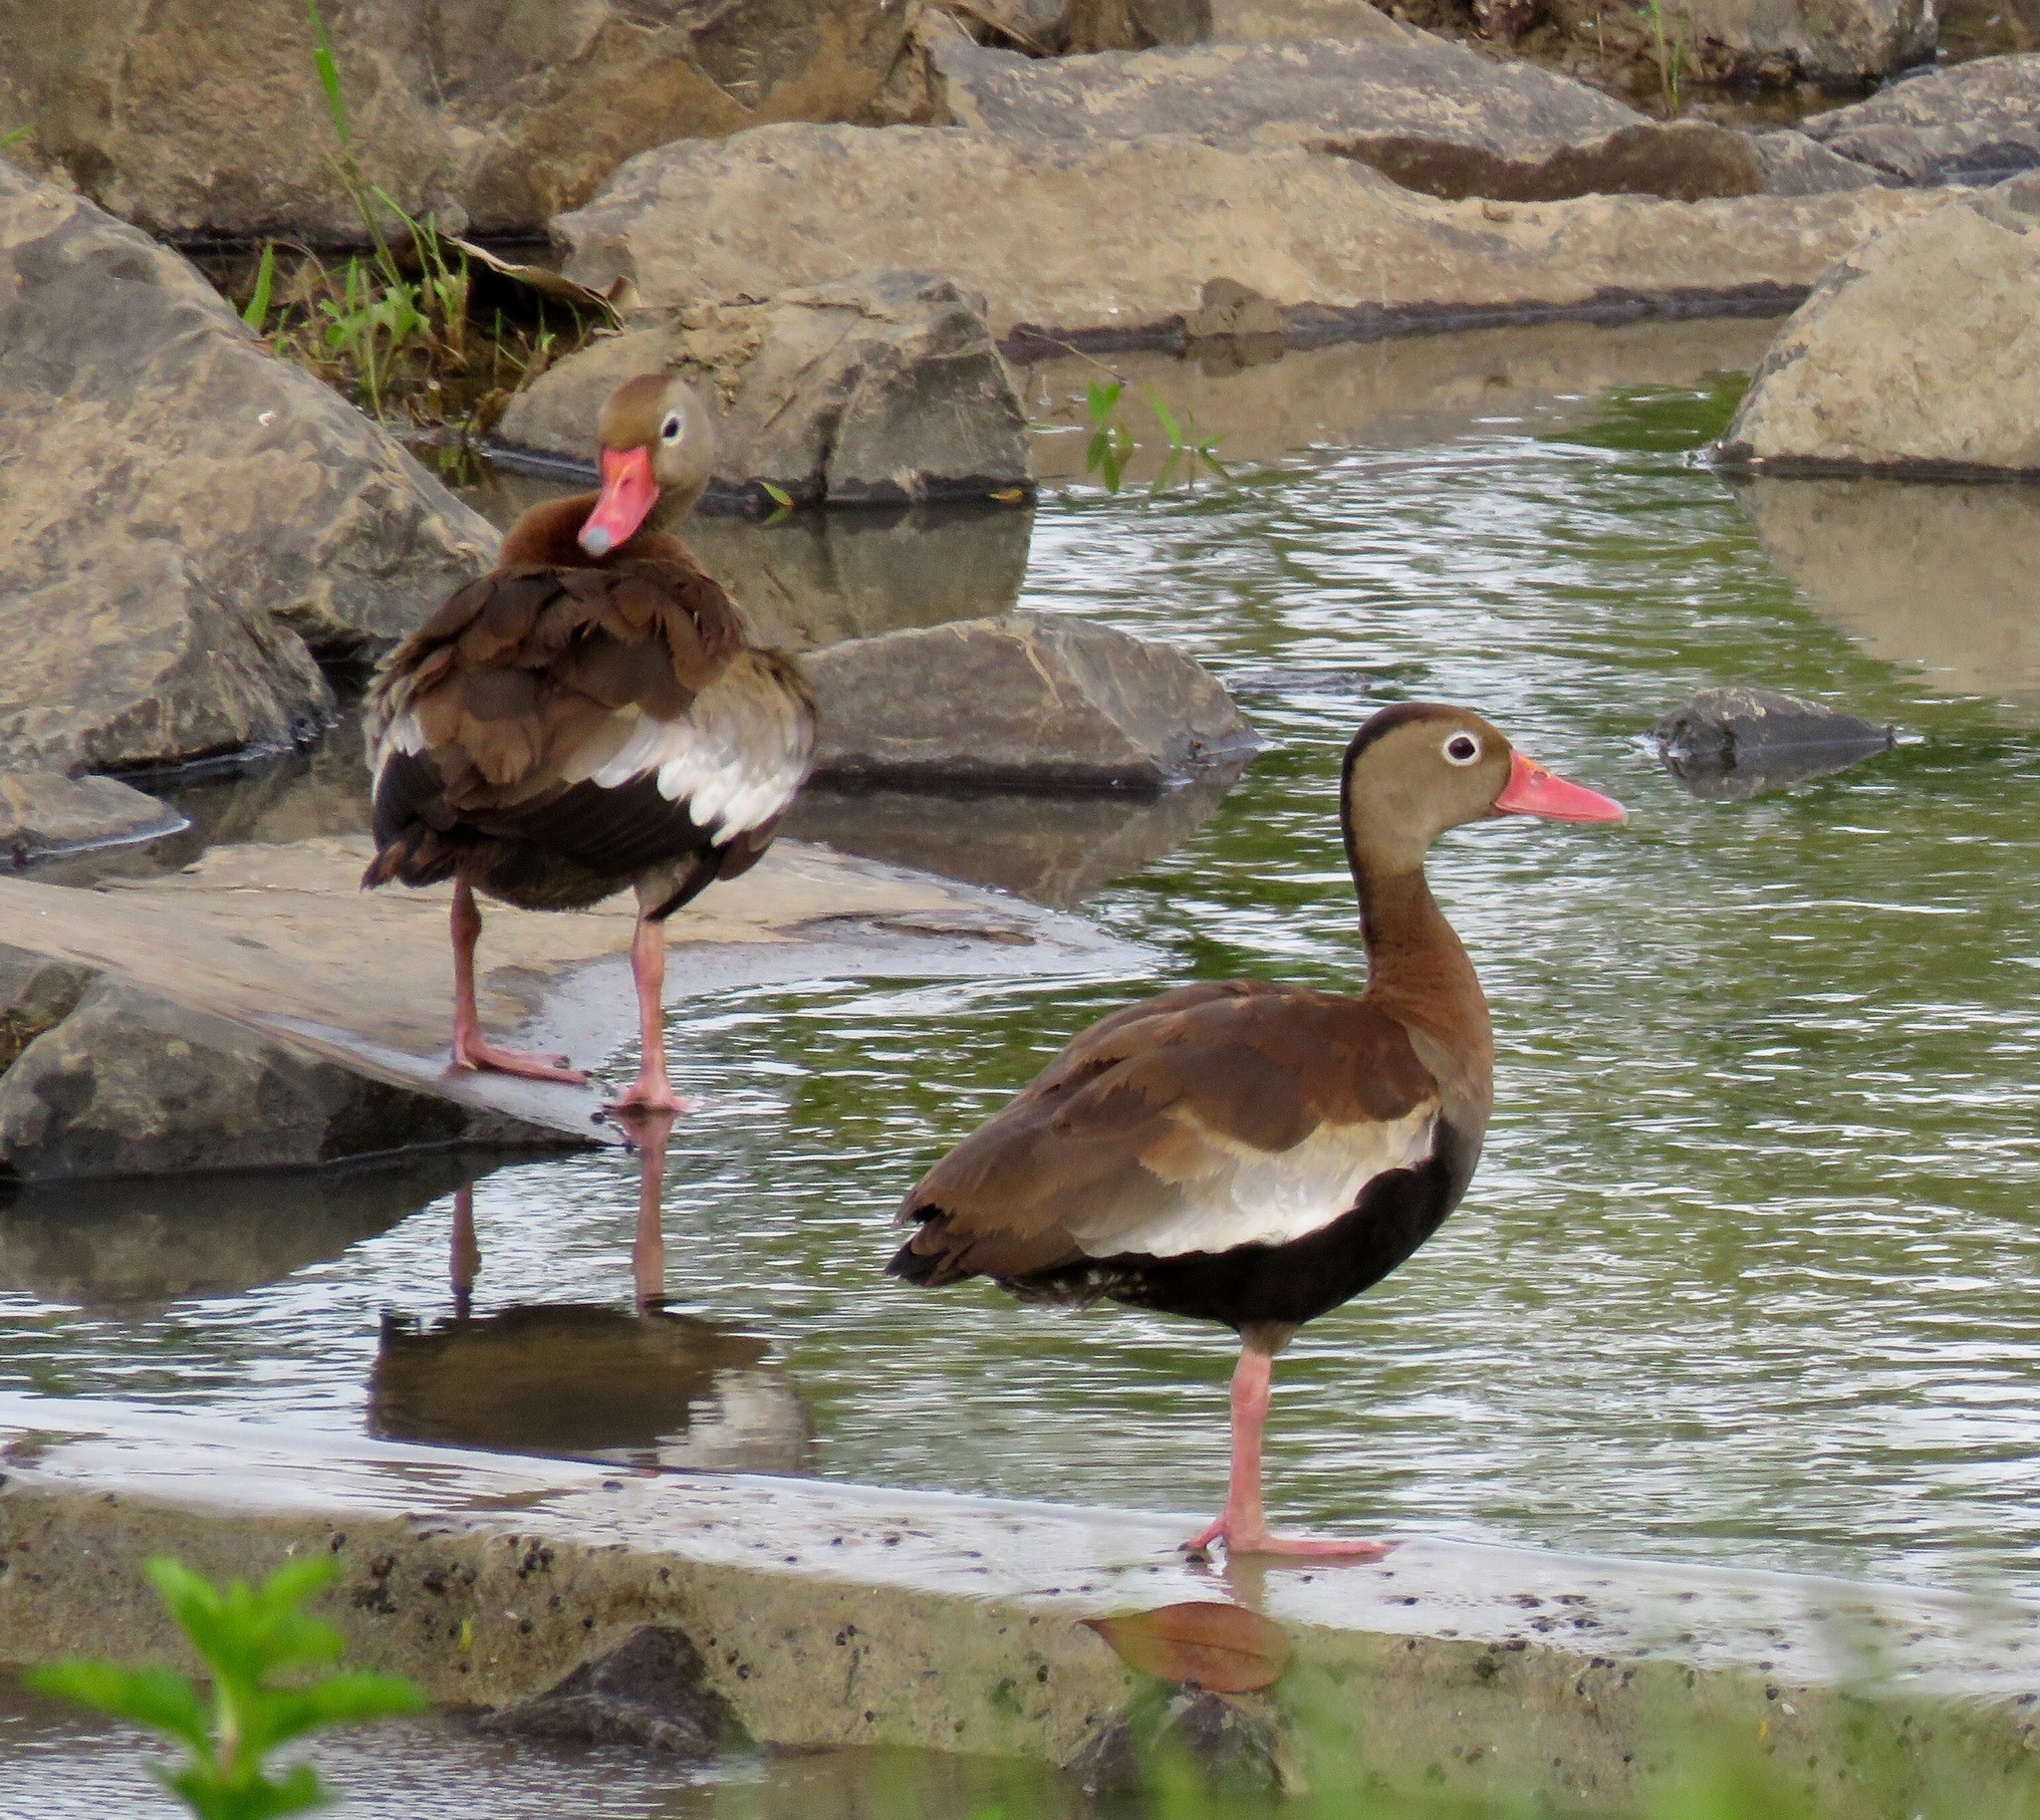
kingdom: Animalia
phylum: Chordata
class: Aves
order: Anseriformes
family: Anatidae
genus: Dendrocygna
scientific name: Dendrocygna autumnalis
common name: Black-bellied whistling duck
